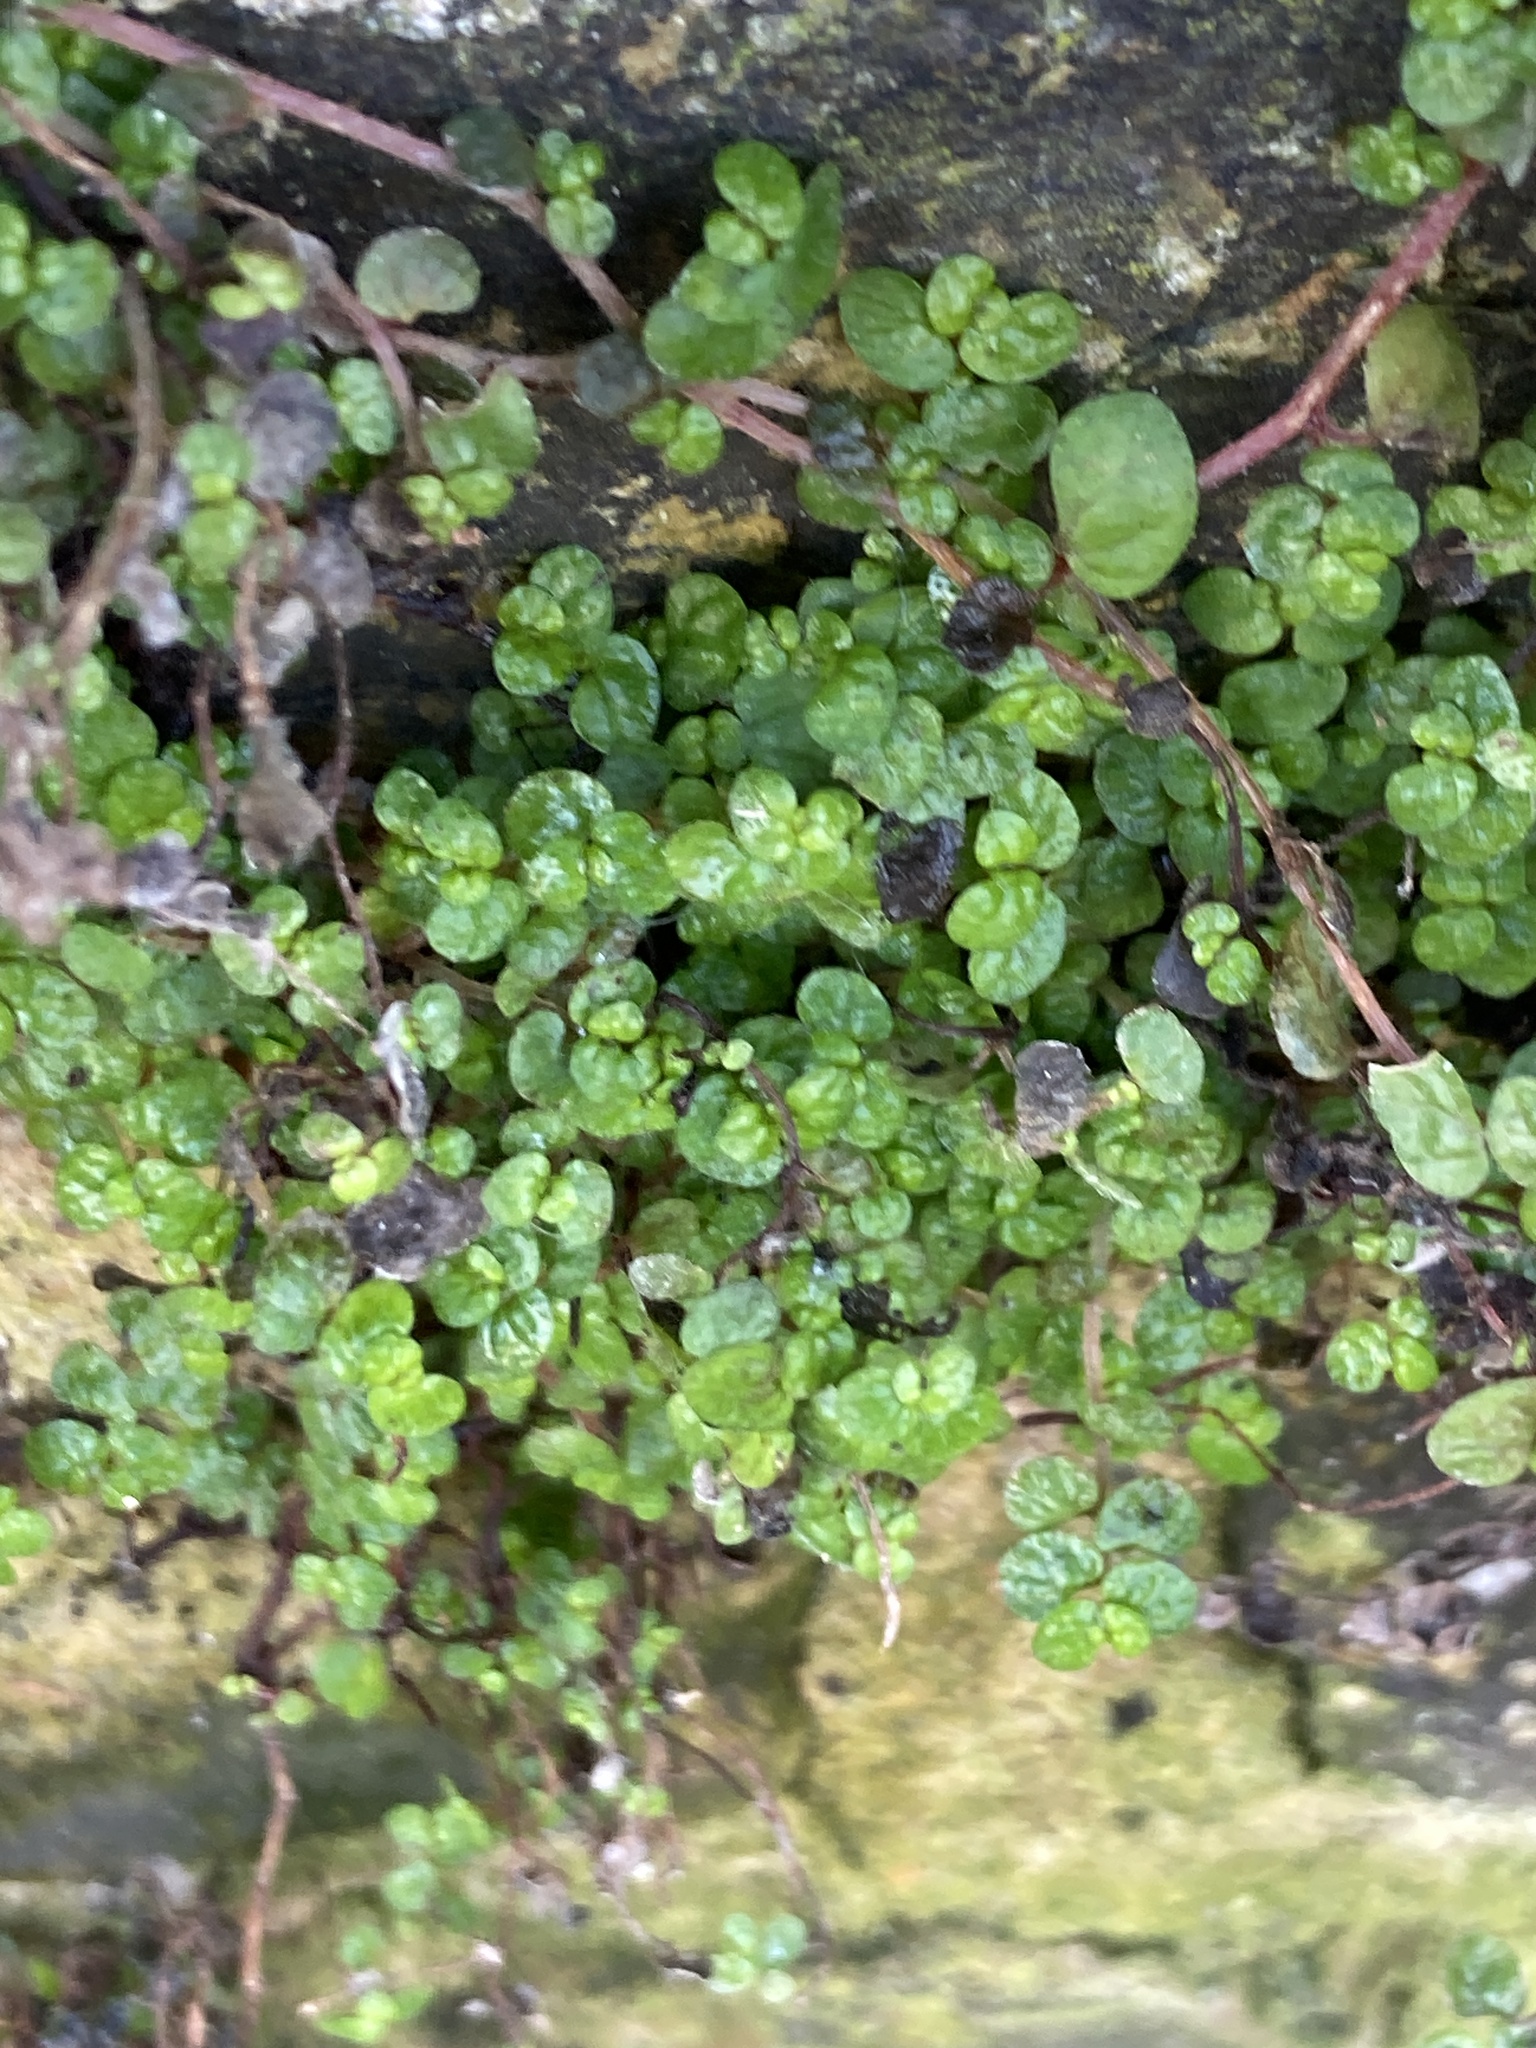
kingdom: Plantae
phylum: Tracheophyta
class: Magnoliopsida
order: Rosales
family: Urticaceae
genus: Soleirolia
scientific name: Soleirolia soleirolii
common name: Mind-your-own-business
